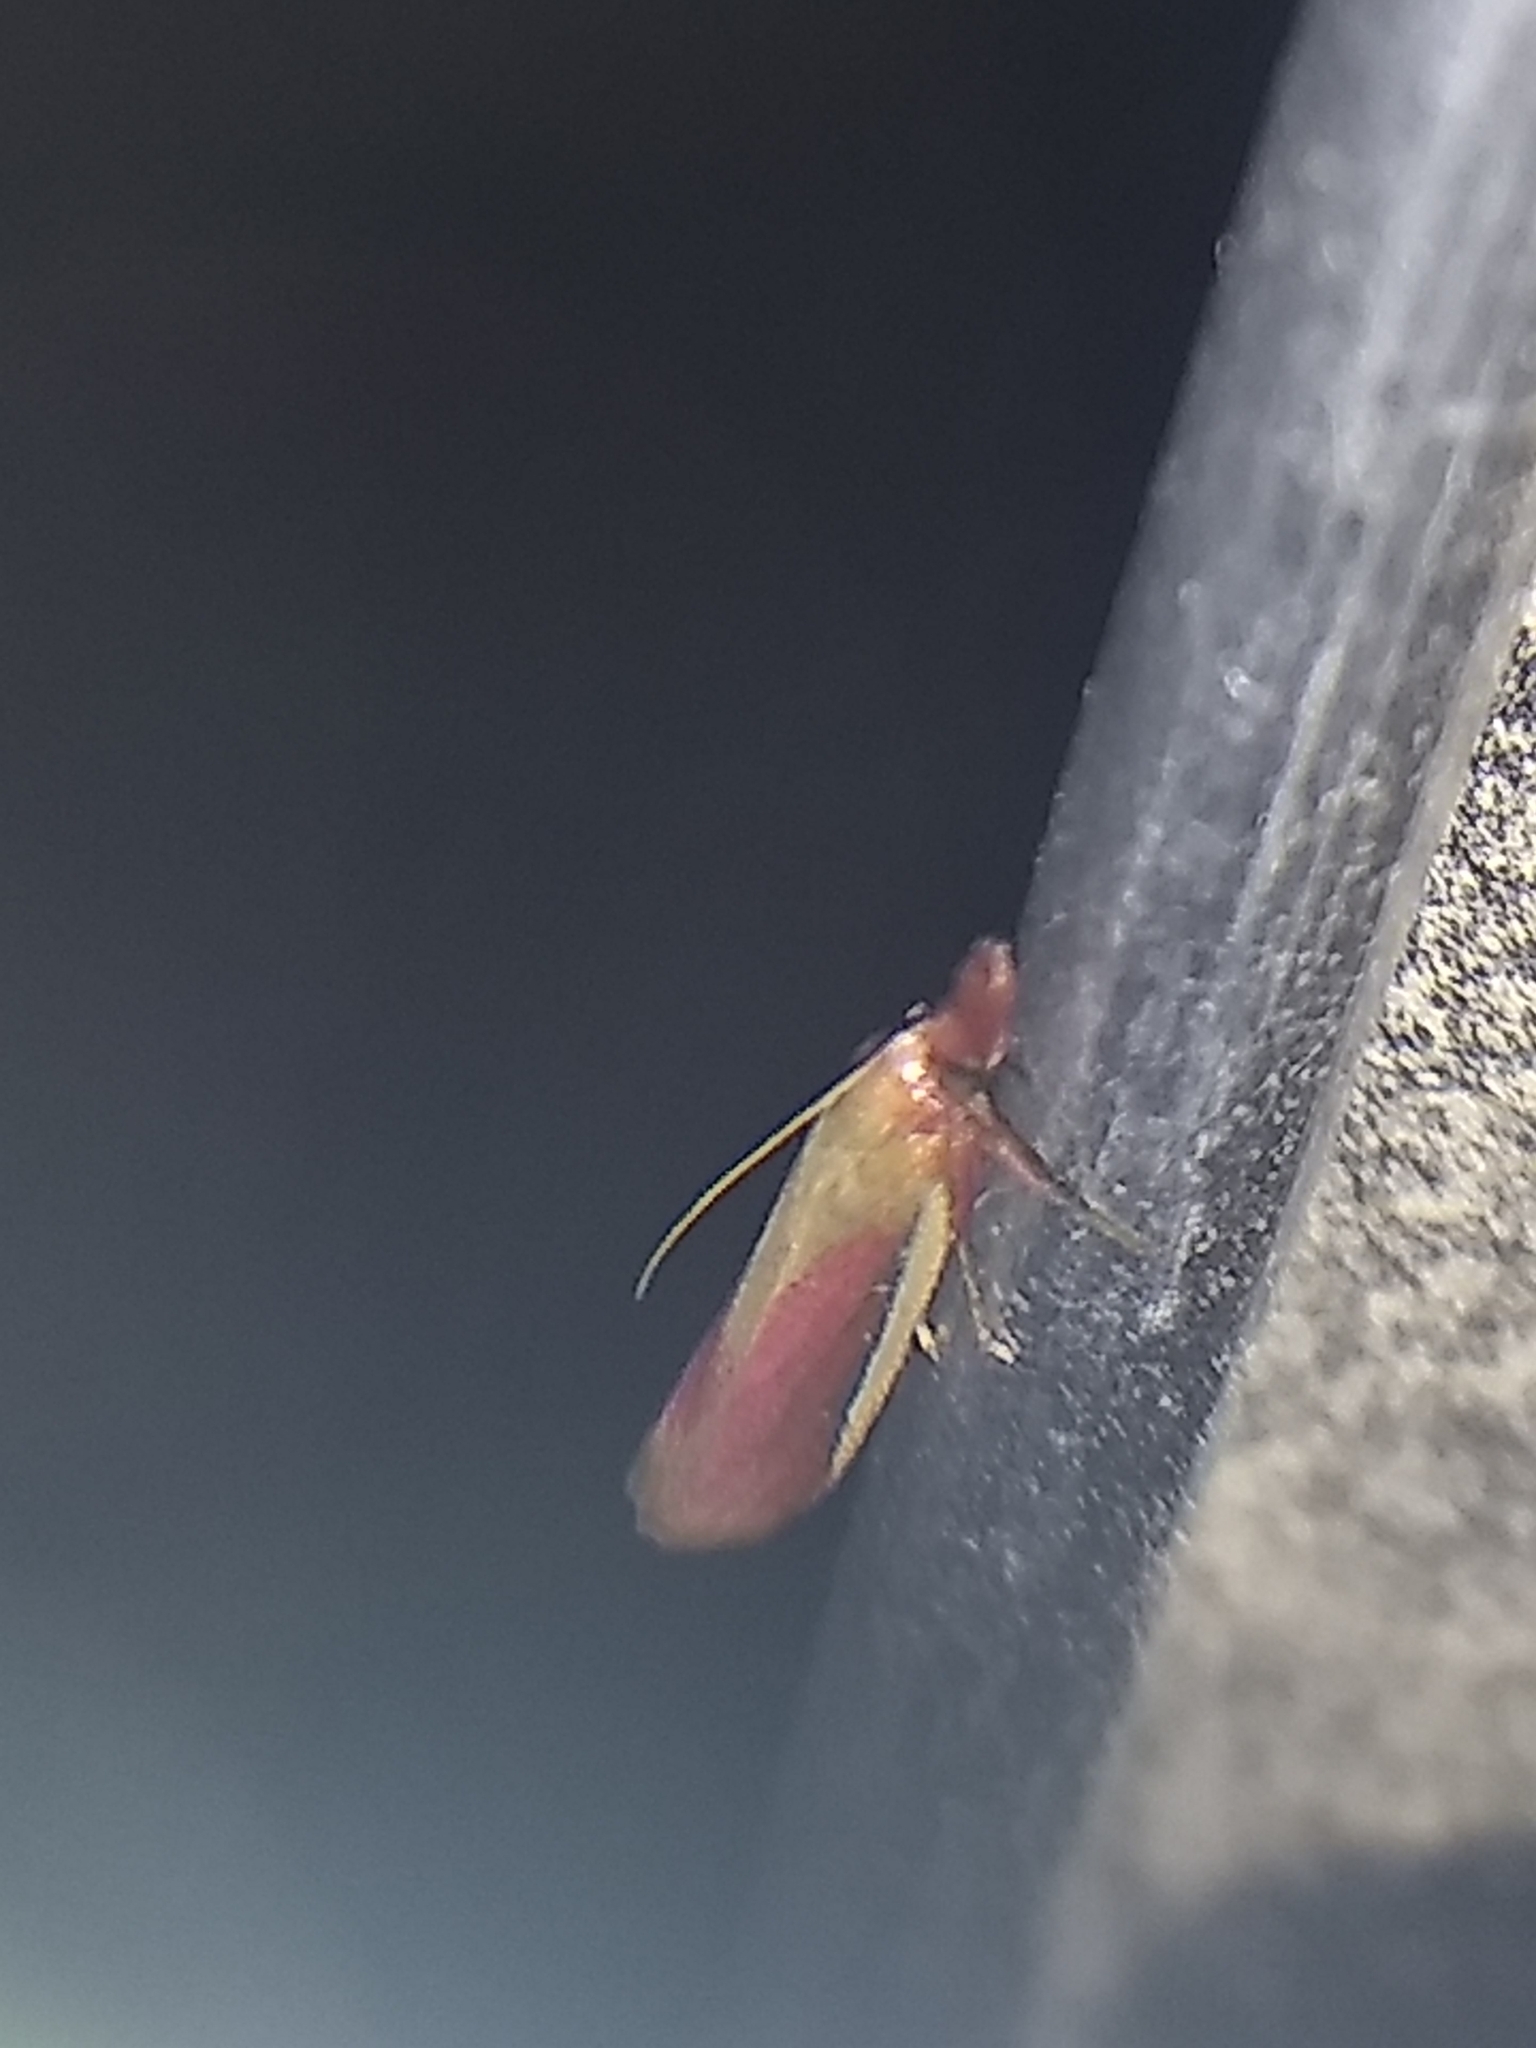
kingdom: Animalia
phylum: Arthropoda
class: Insecta
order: Lepidoptera
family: Pyralidae
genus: Peoria
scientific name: Peoria approximella
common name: Carmine snout
